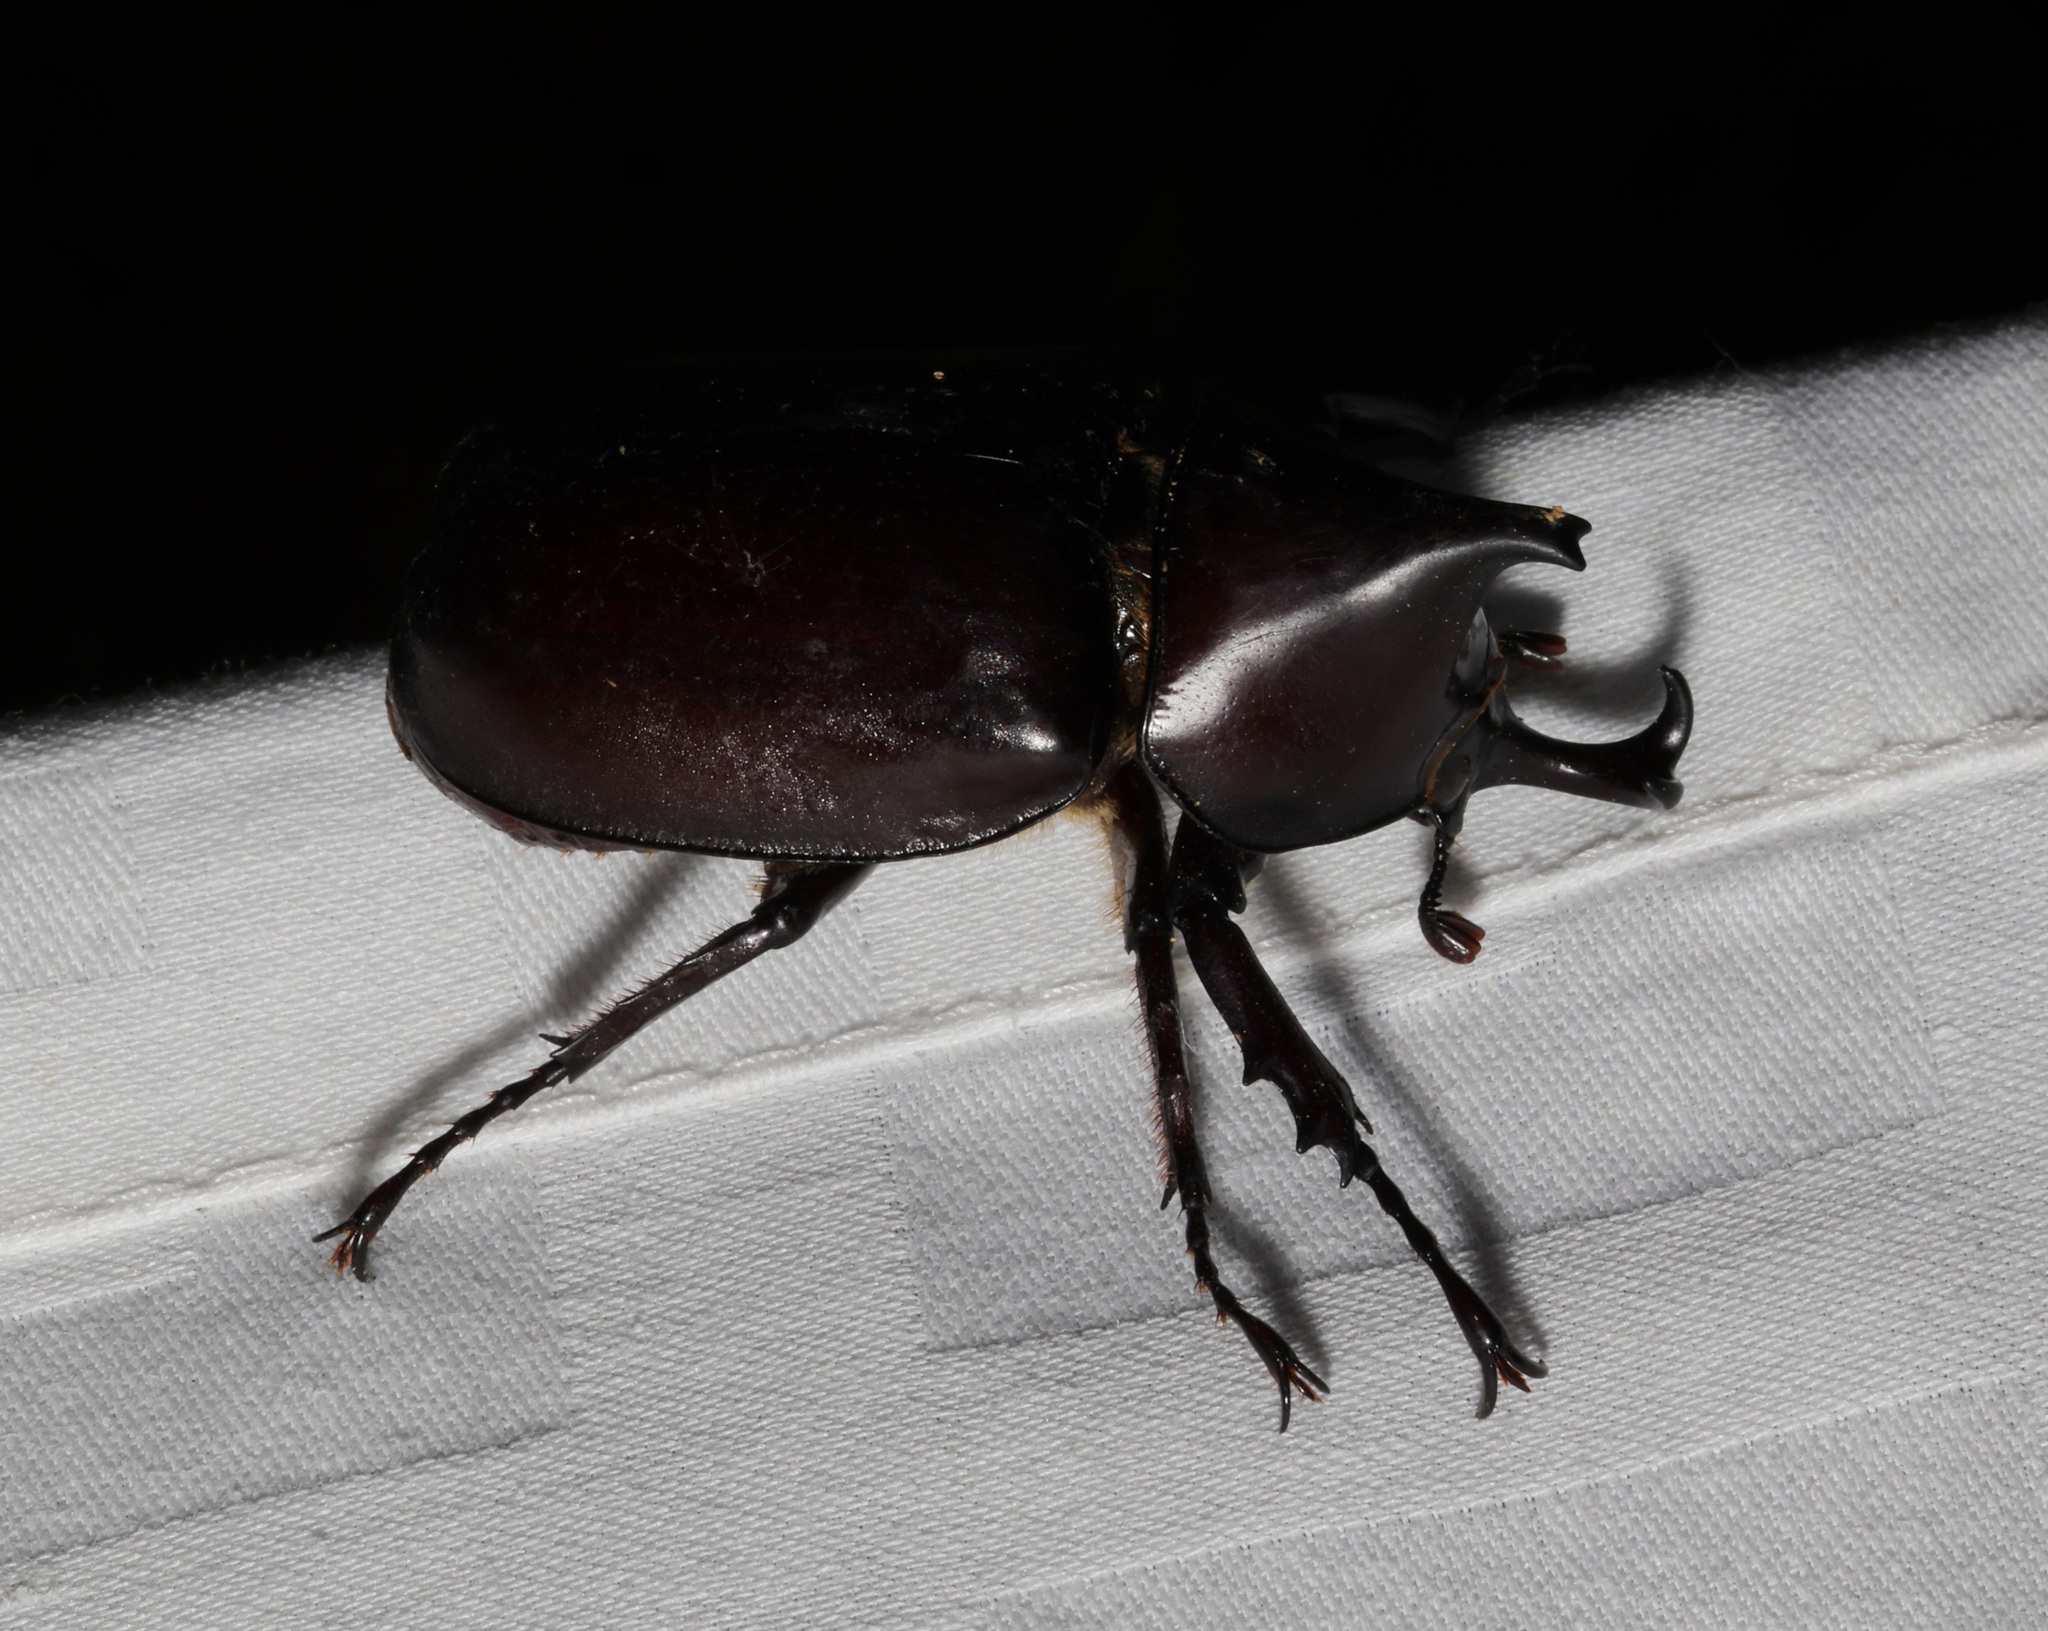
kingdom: Animalia
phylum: Arthropoda
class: Insecta
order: Coleoptera
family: Scarabaeidae
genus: Xylotrupes
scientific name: Xylotrupes socrates
